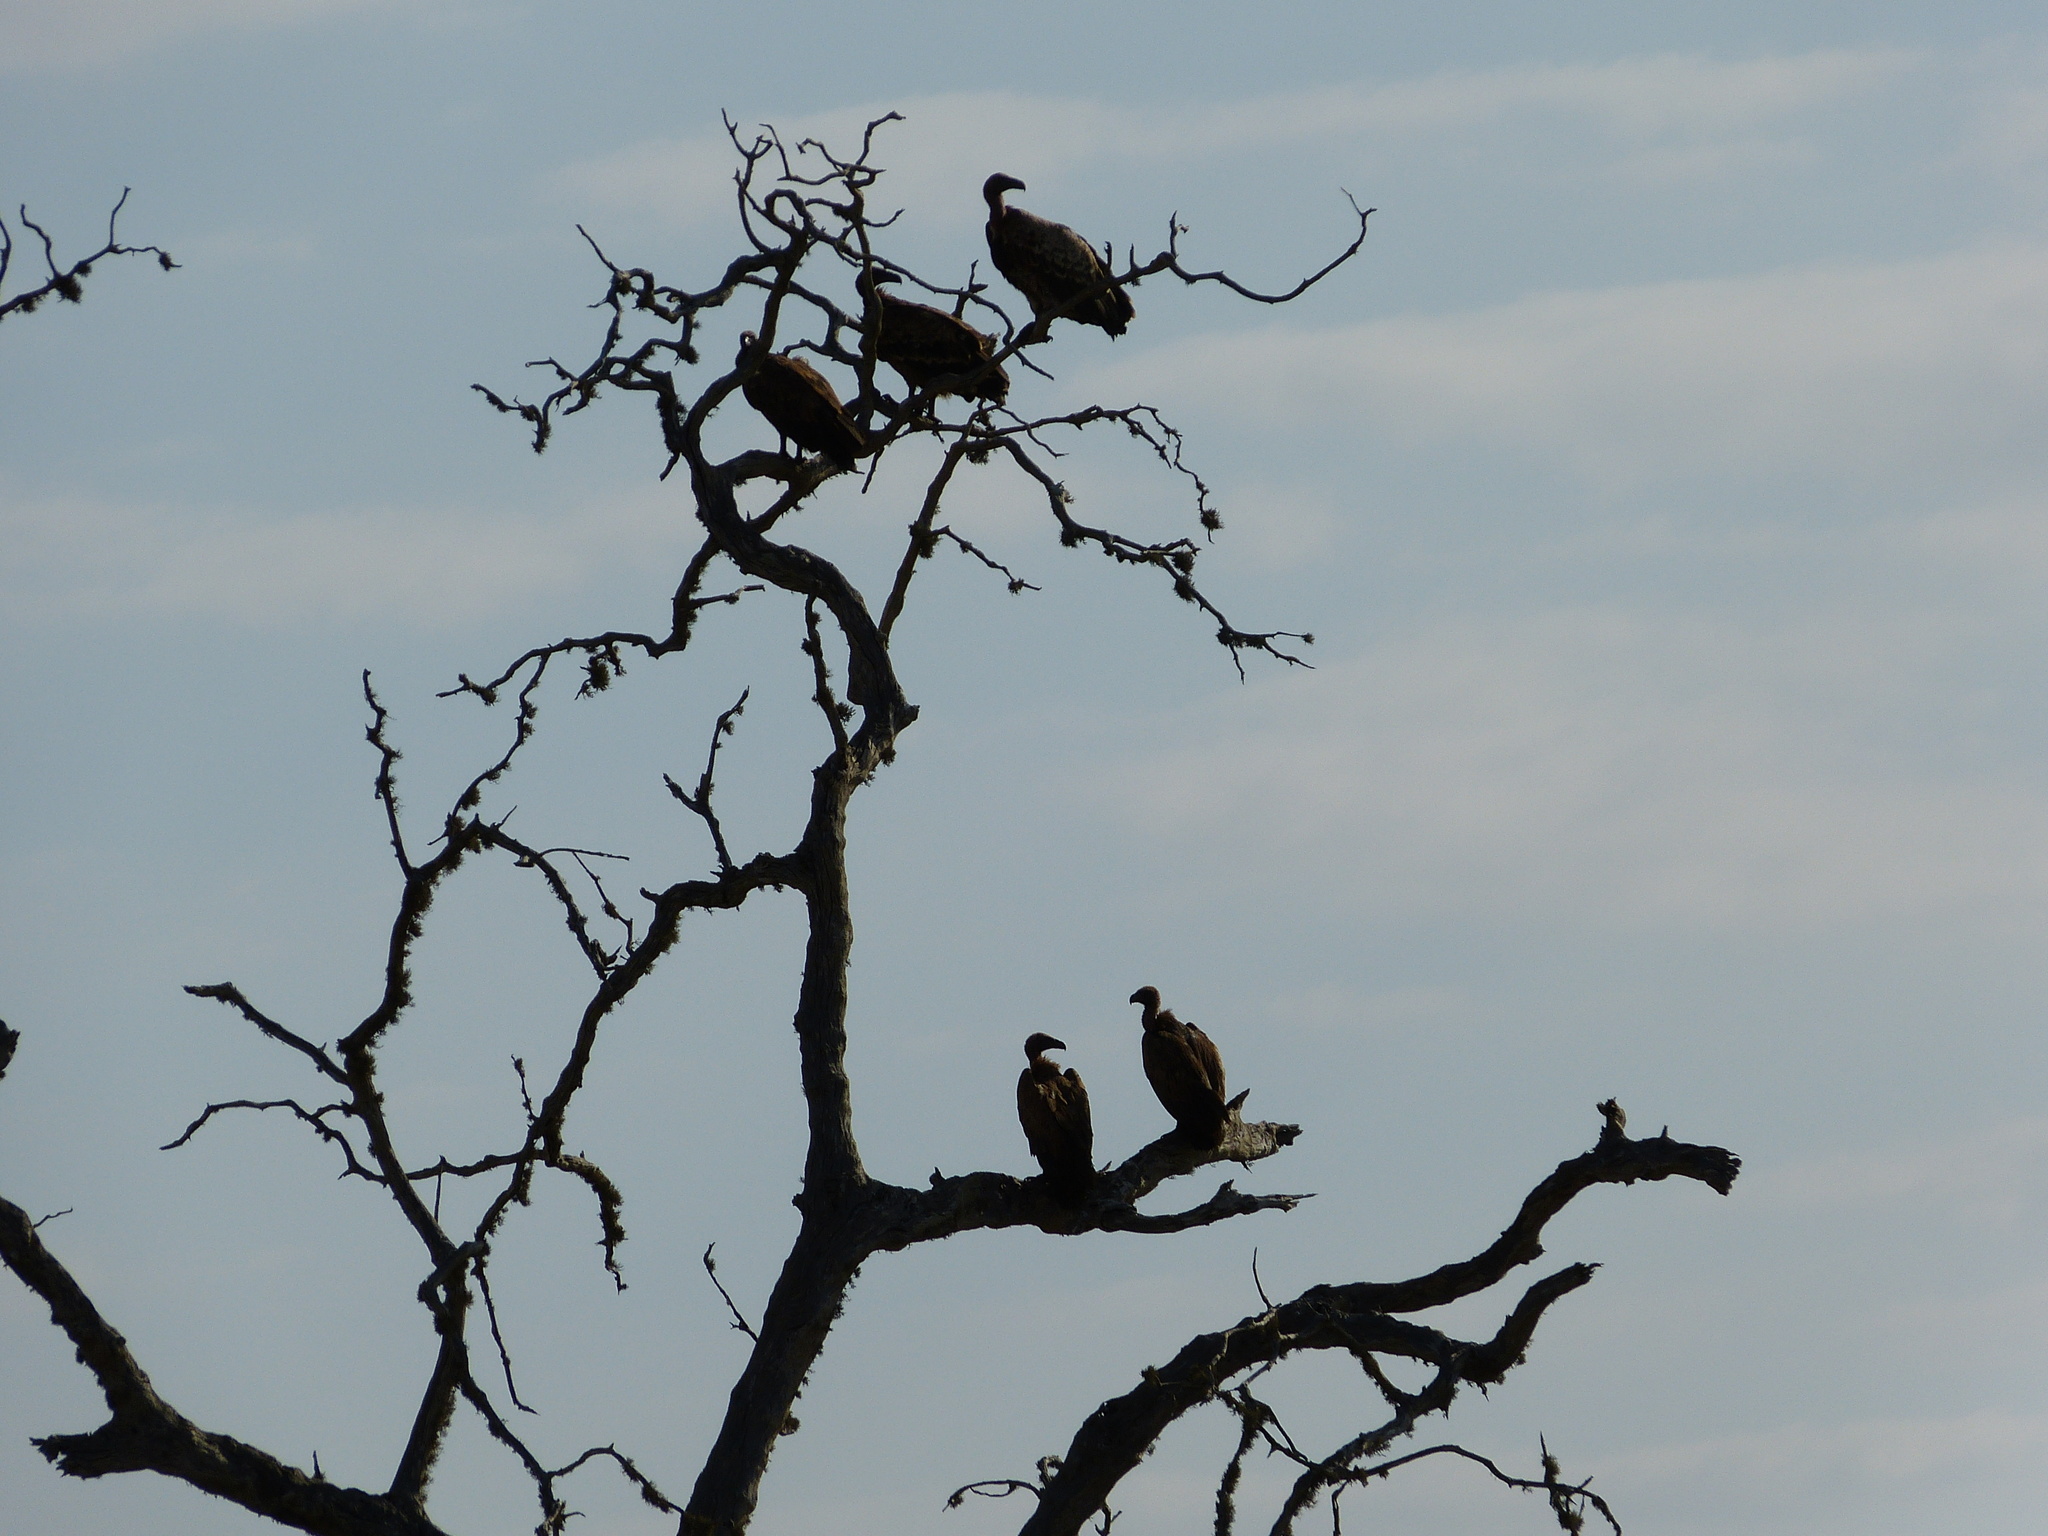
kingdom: Animalia
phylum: Chordata
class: Aves
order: Accipitriformes
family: Accipitridae
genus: Gyps
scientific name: Gyps africanus
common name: White-backed vulture
